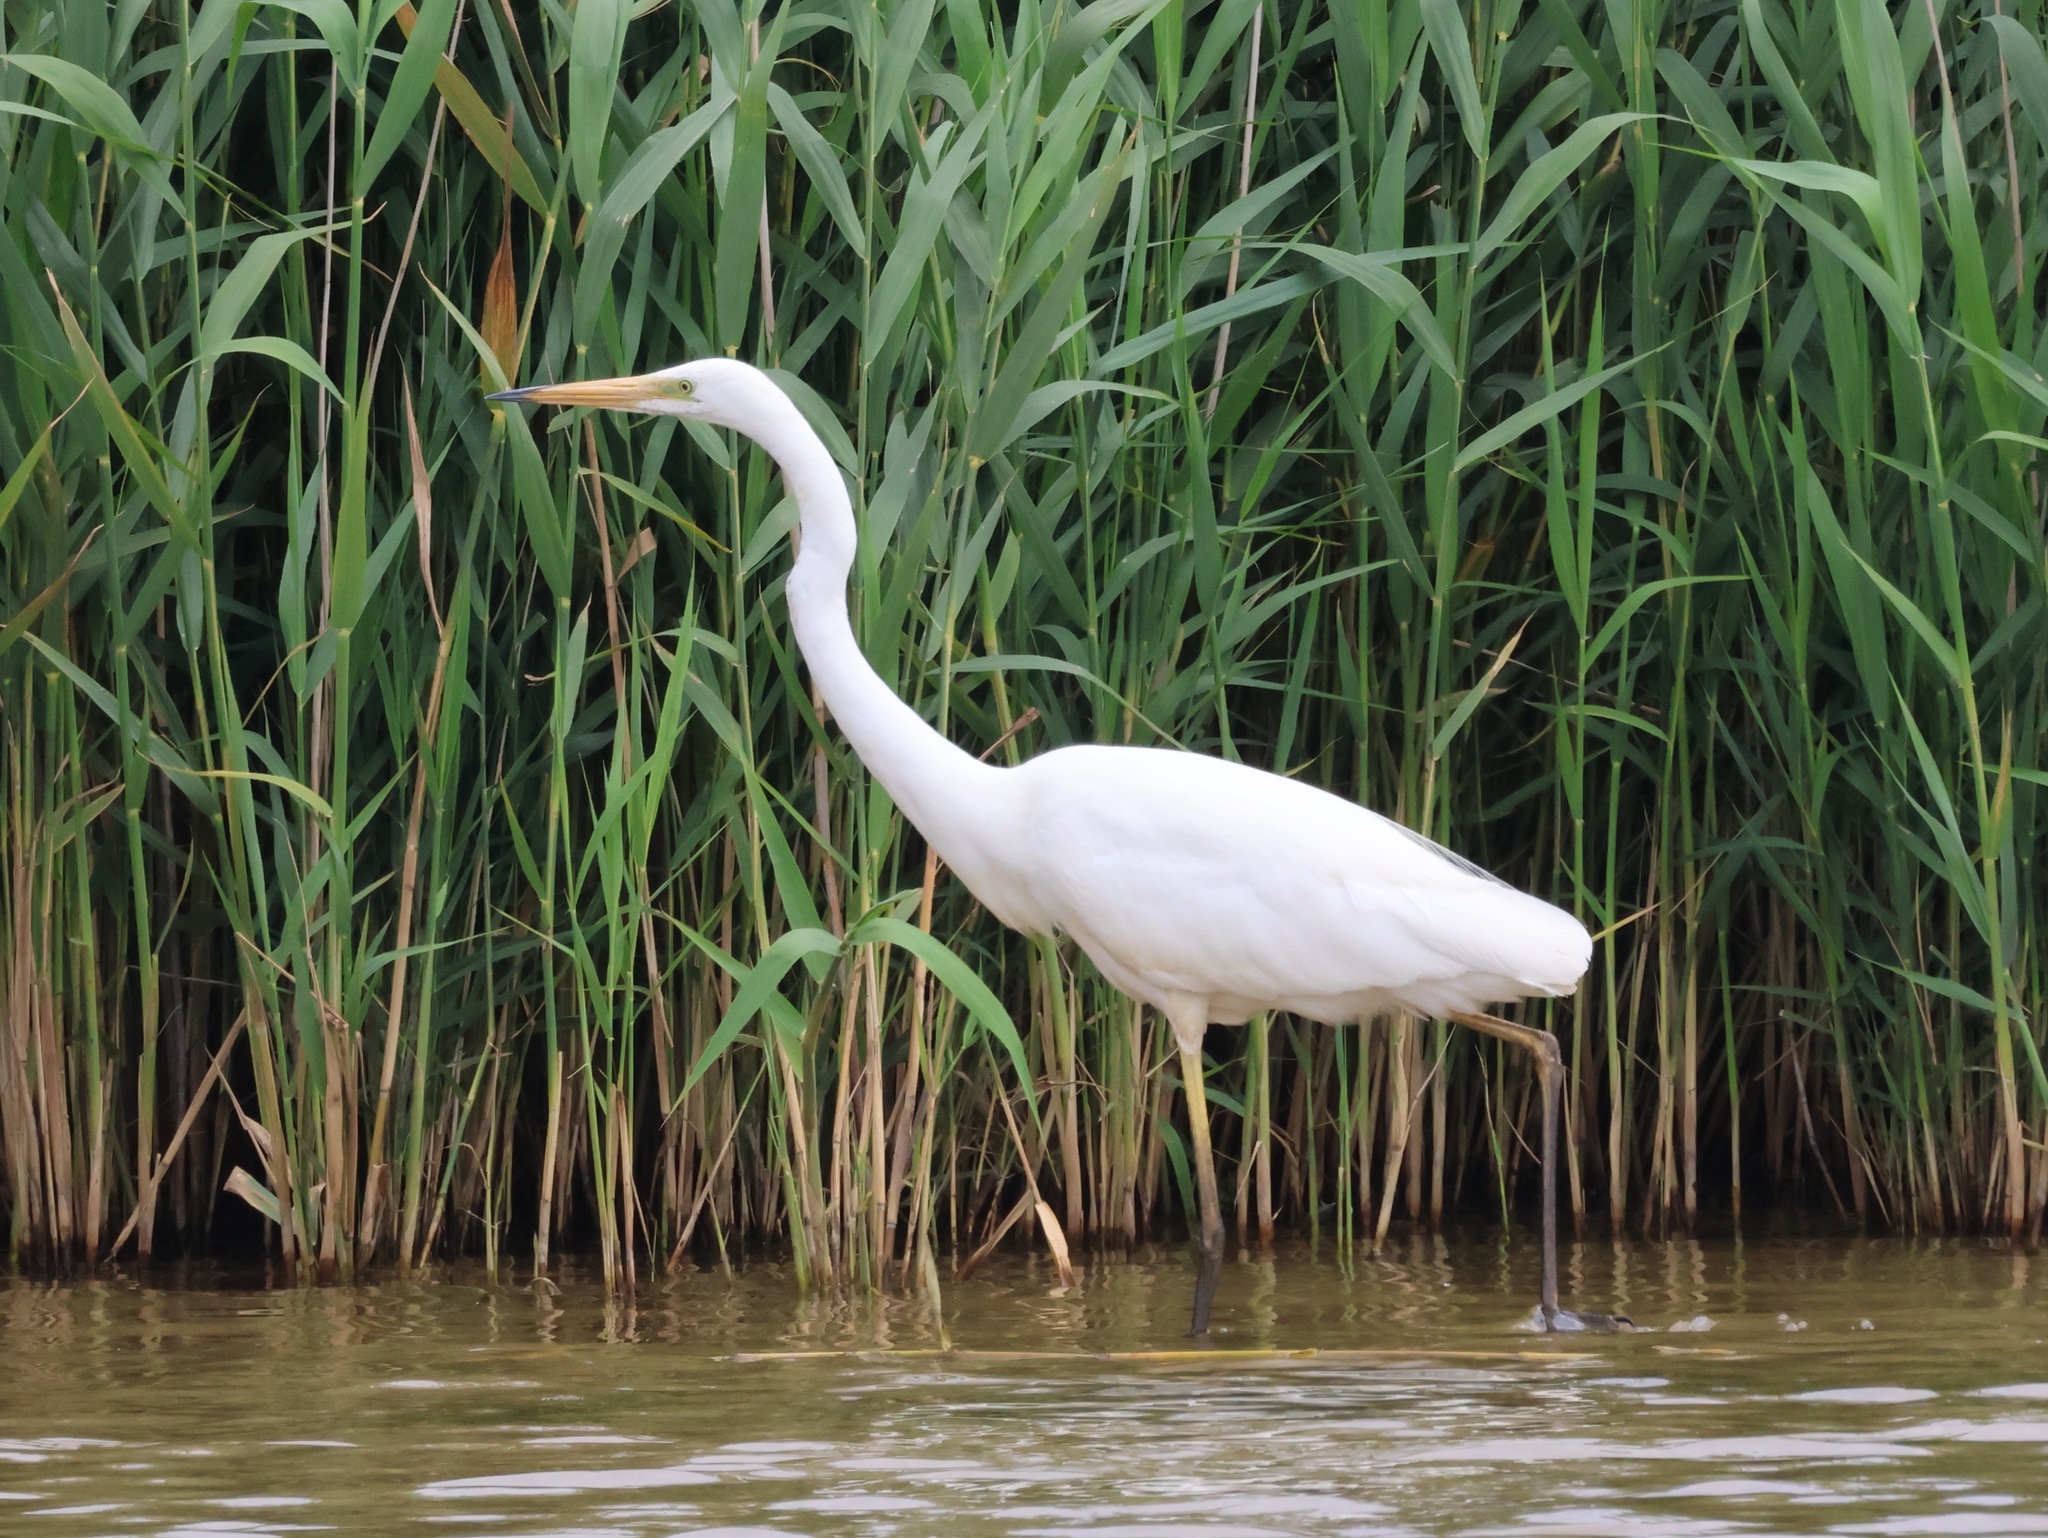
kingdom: Animalia
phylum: Chordata
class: Aves
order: Pelecaniformes
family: Ardeidae
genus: Ardea
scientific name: Ardea alba
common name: Great egret
